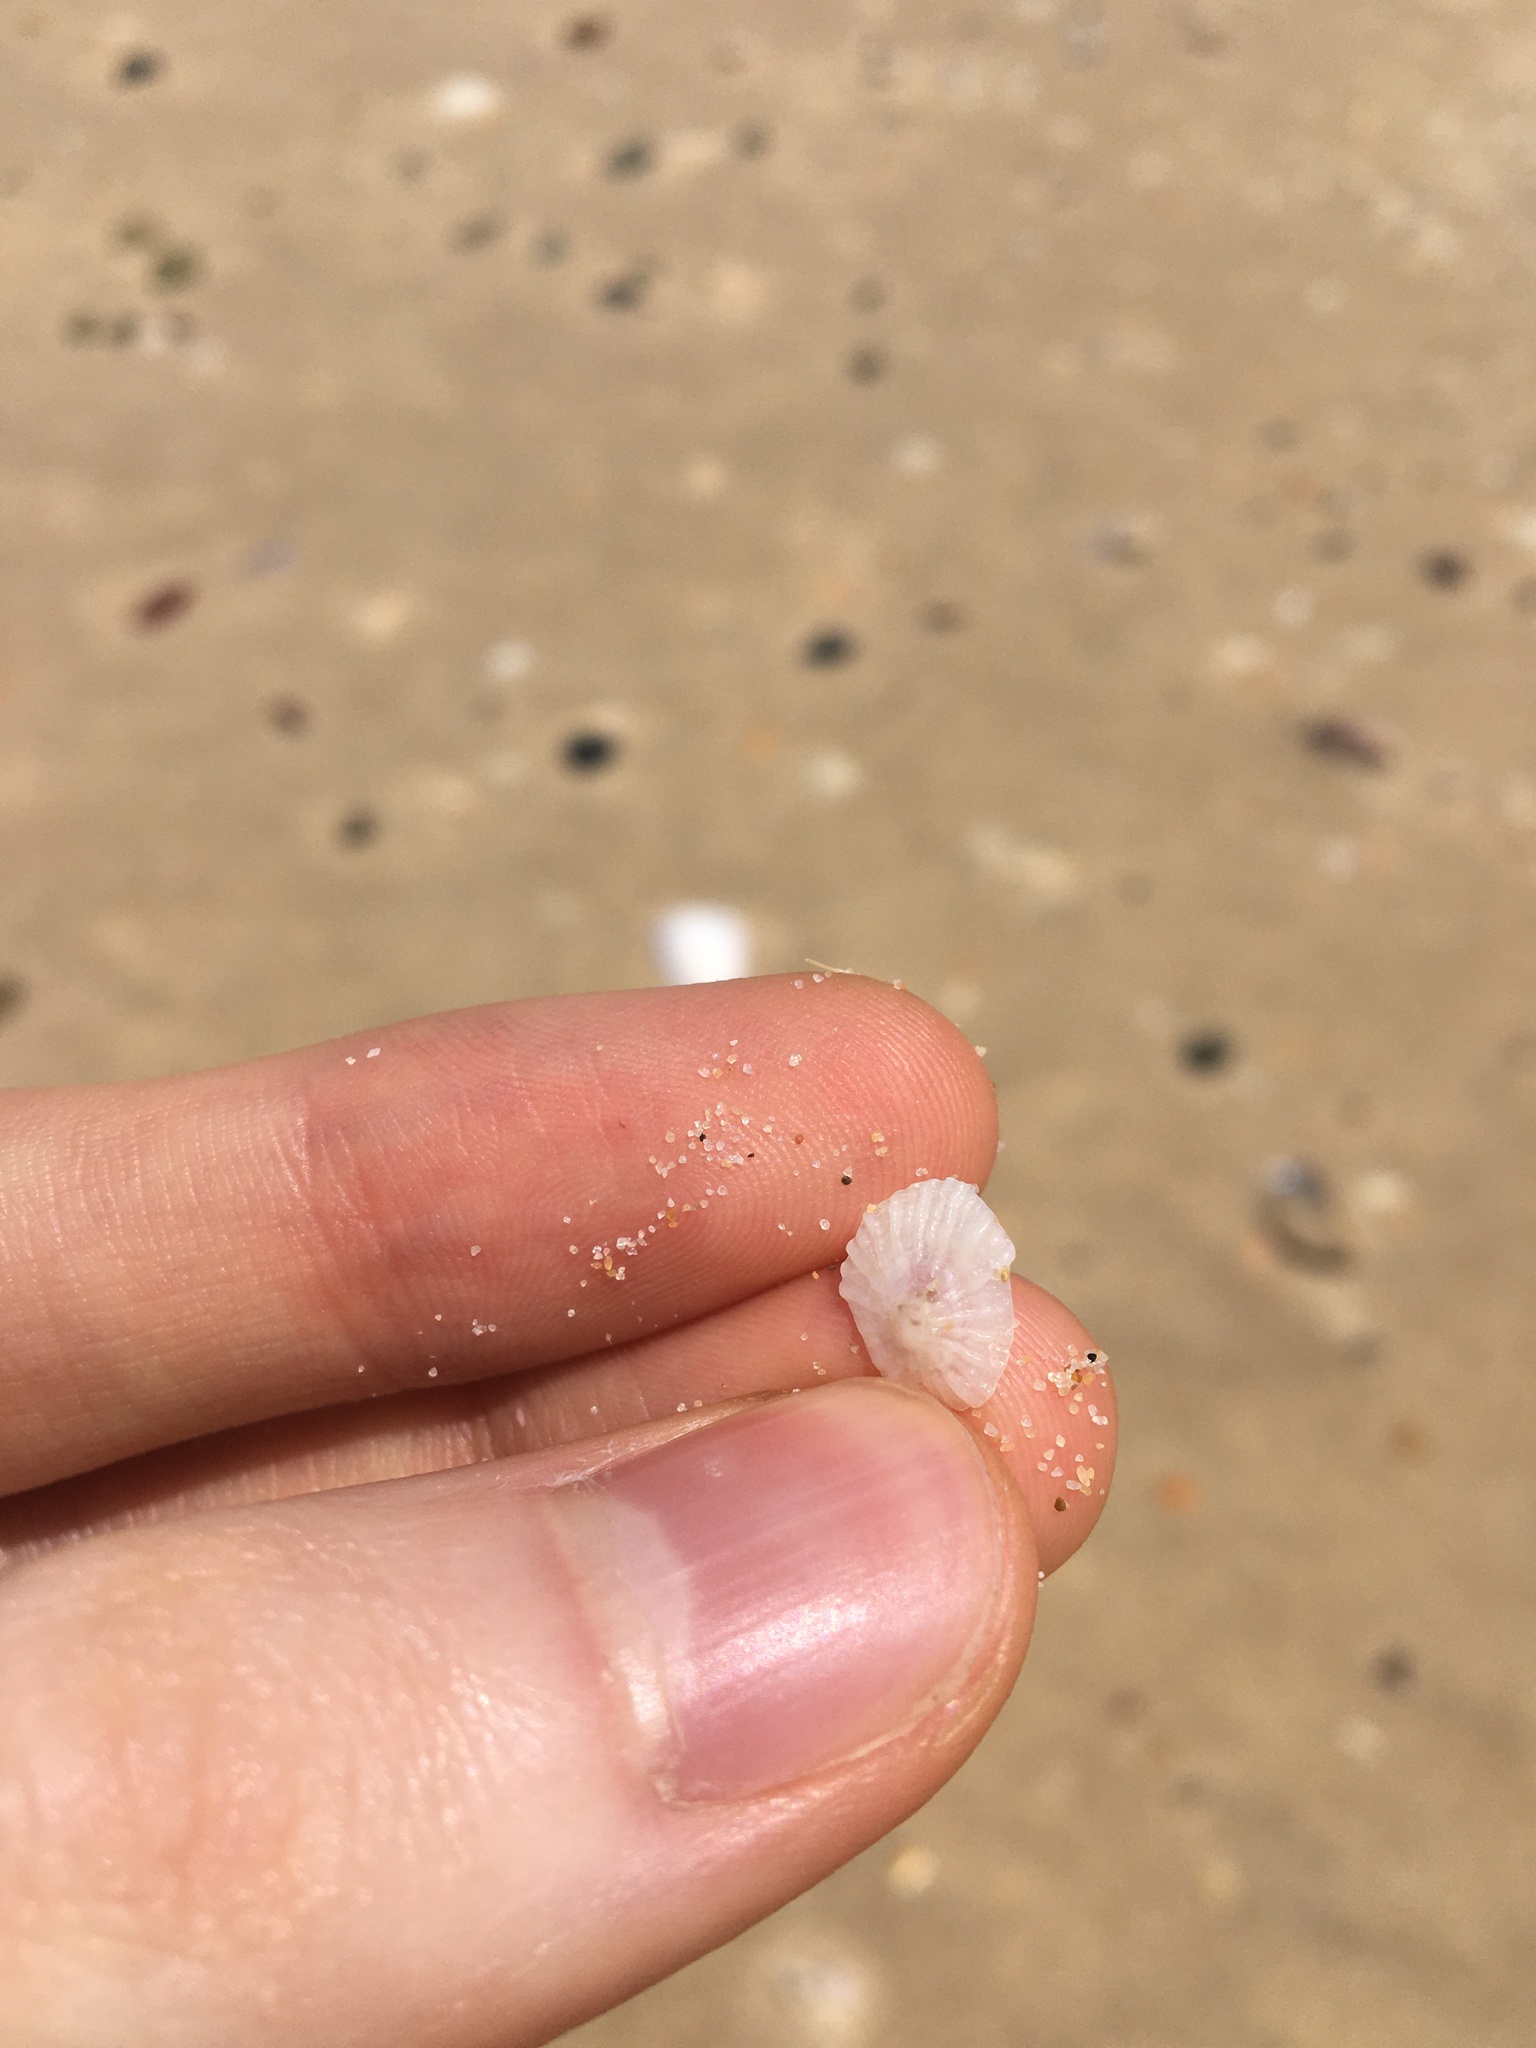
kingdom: Animalia
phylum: Mollusca
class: Gastropoda
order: Ellobiida
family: Trimusculidae
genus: Trimusculus
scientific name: Trimusculus conicus
